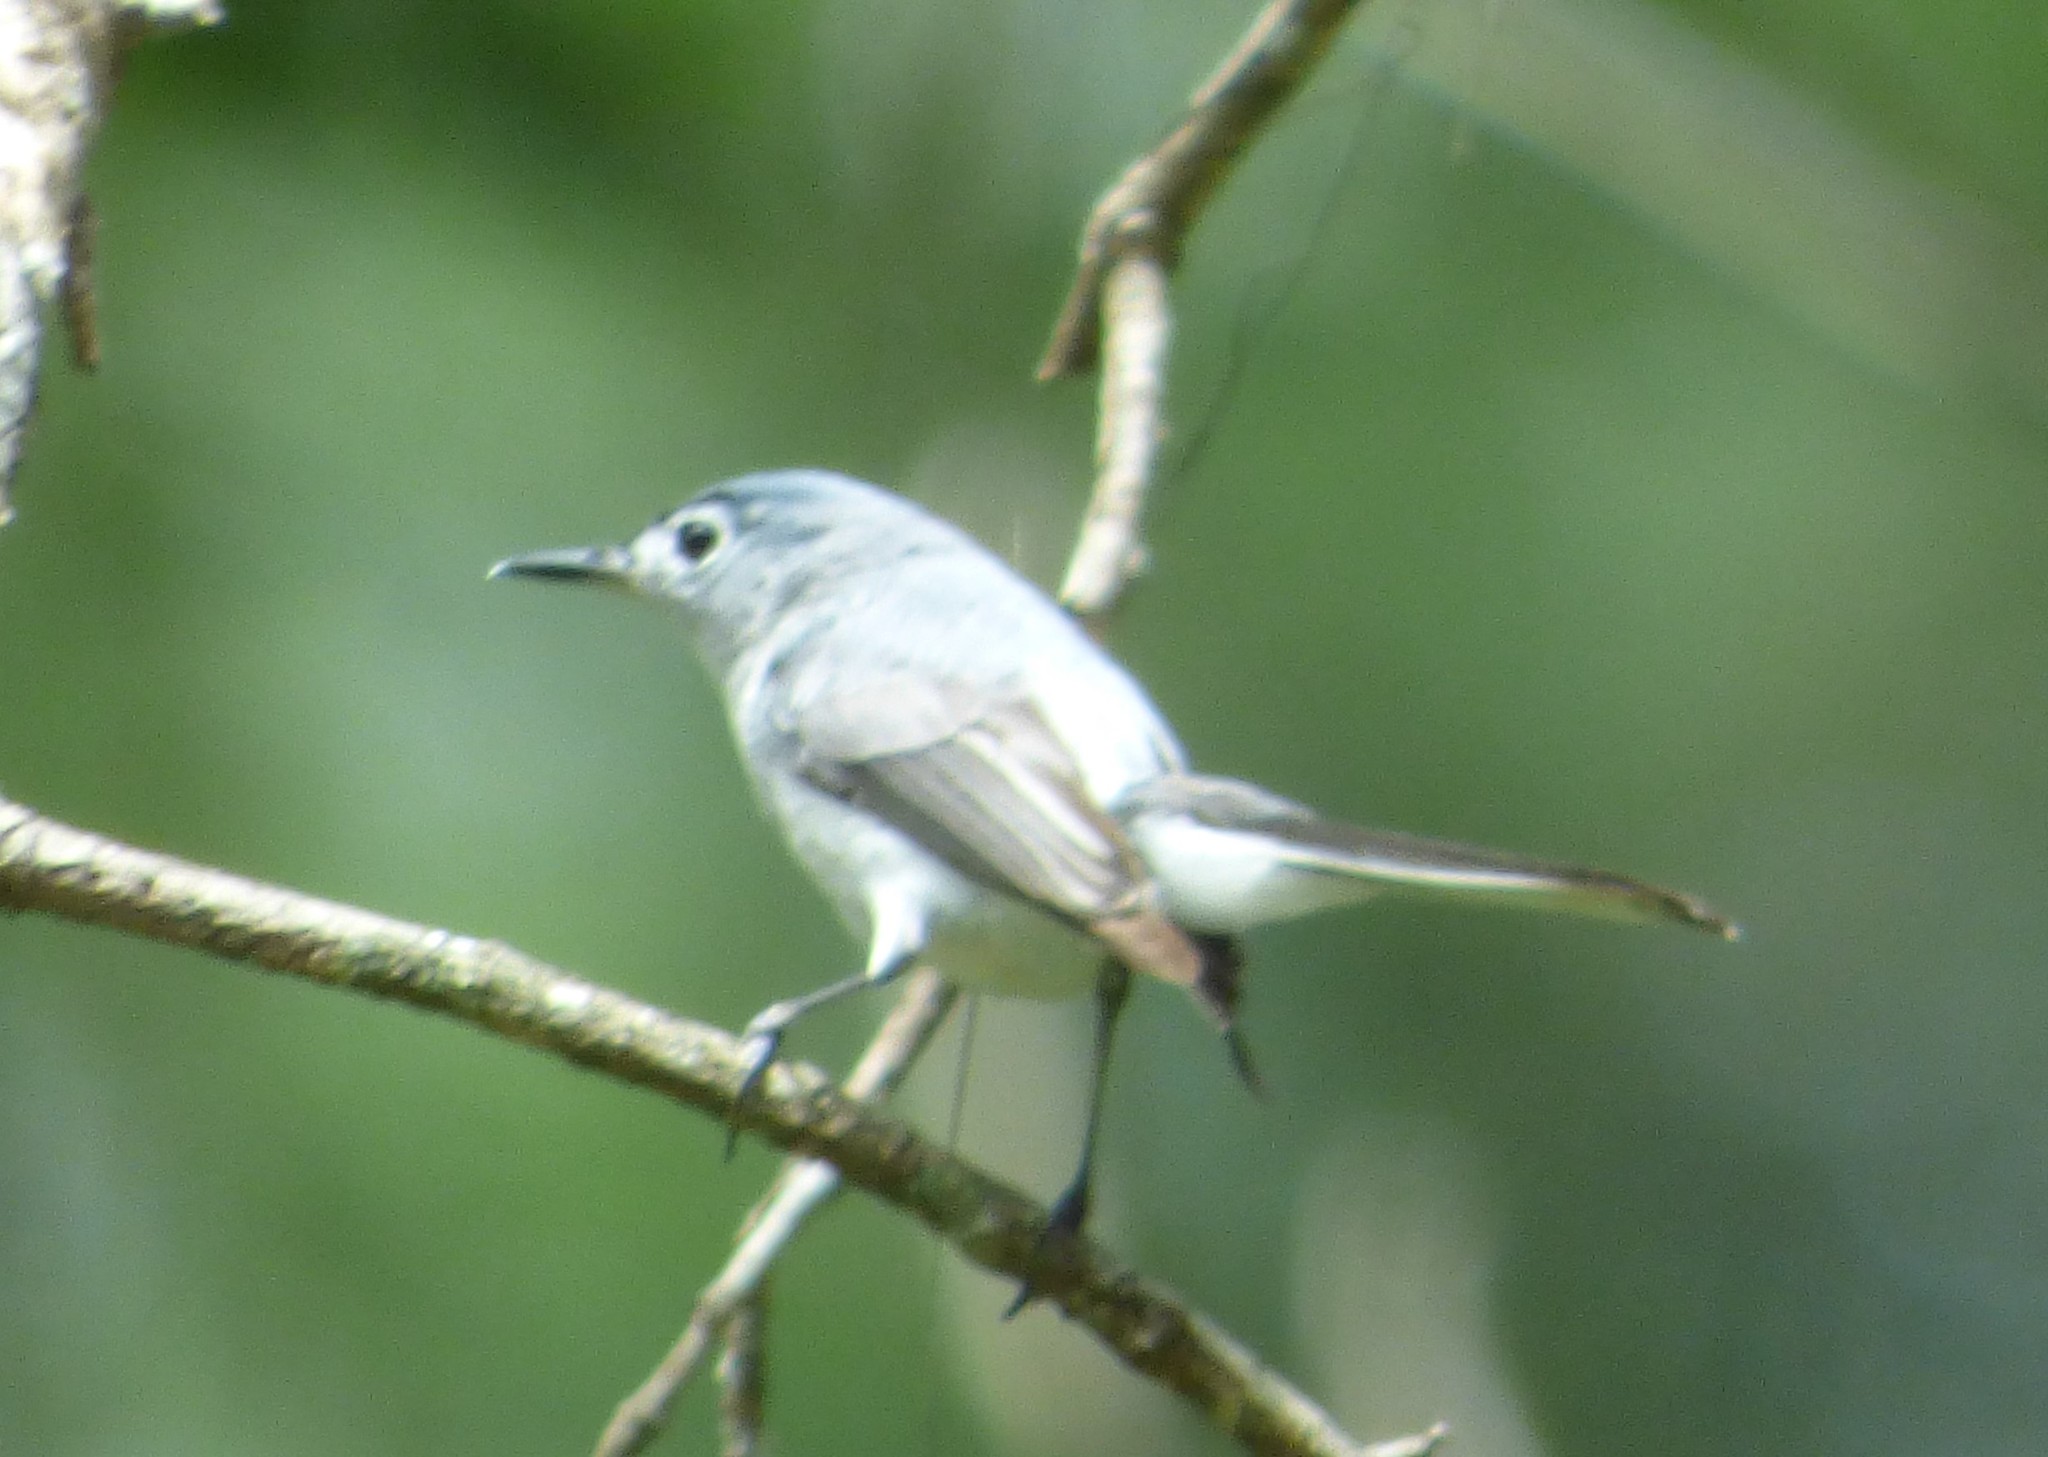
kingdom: Animalia
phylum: Chordata
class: Aves
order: Passeriformes
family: Polioptilidae
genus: Polioptila
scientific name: Polioptila caerulea
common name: Blue-gray gnatcatcher
